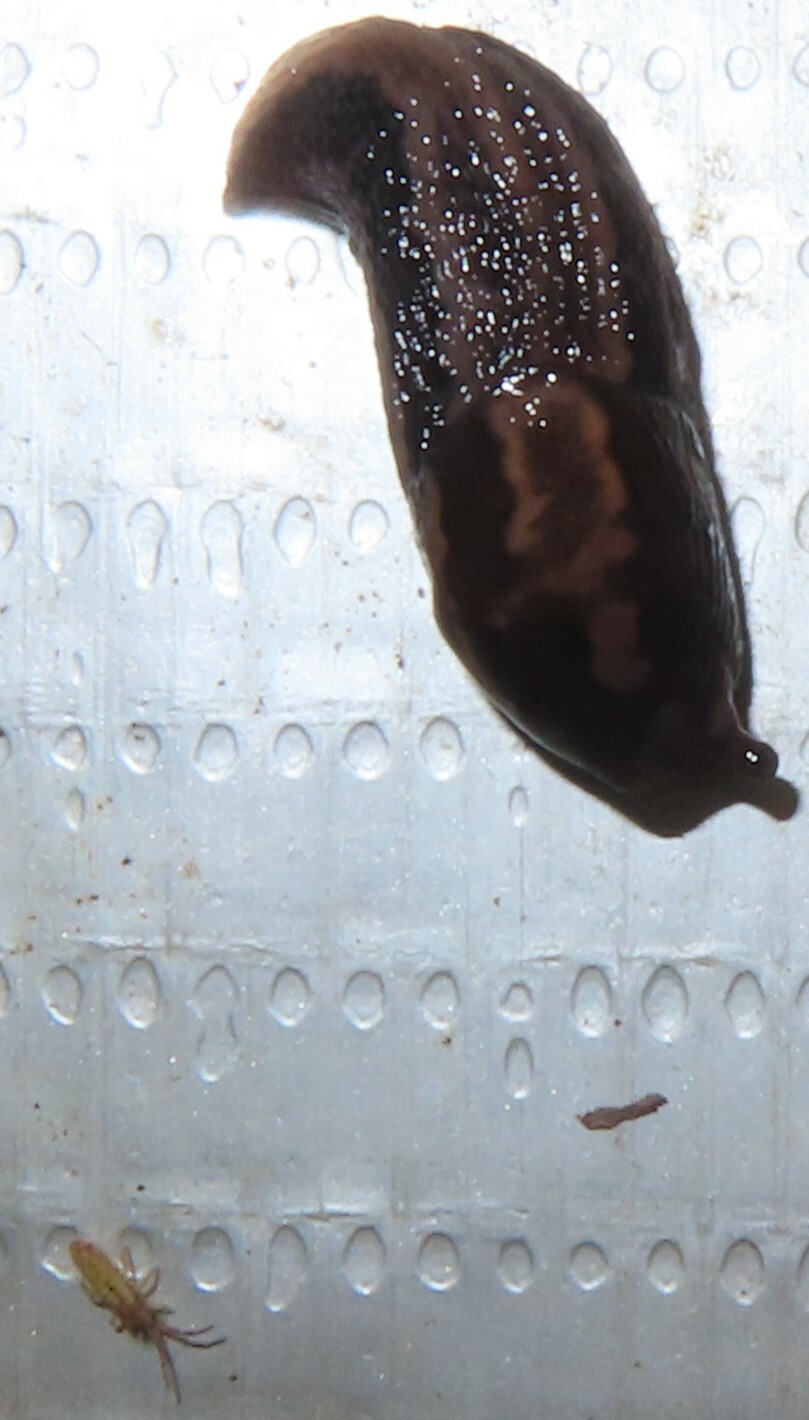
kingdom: Animalia
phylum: Mollusca
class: Gastropoda
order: Stylommatophora
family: Limacidae
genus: Limax
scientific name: Limax maximus
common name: Great grey slug
